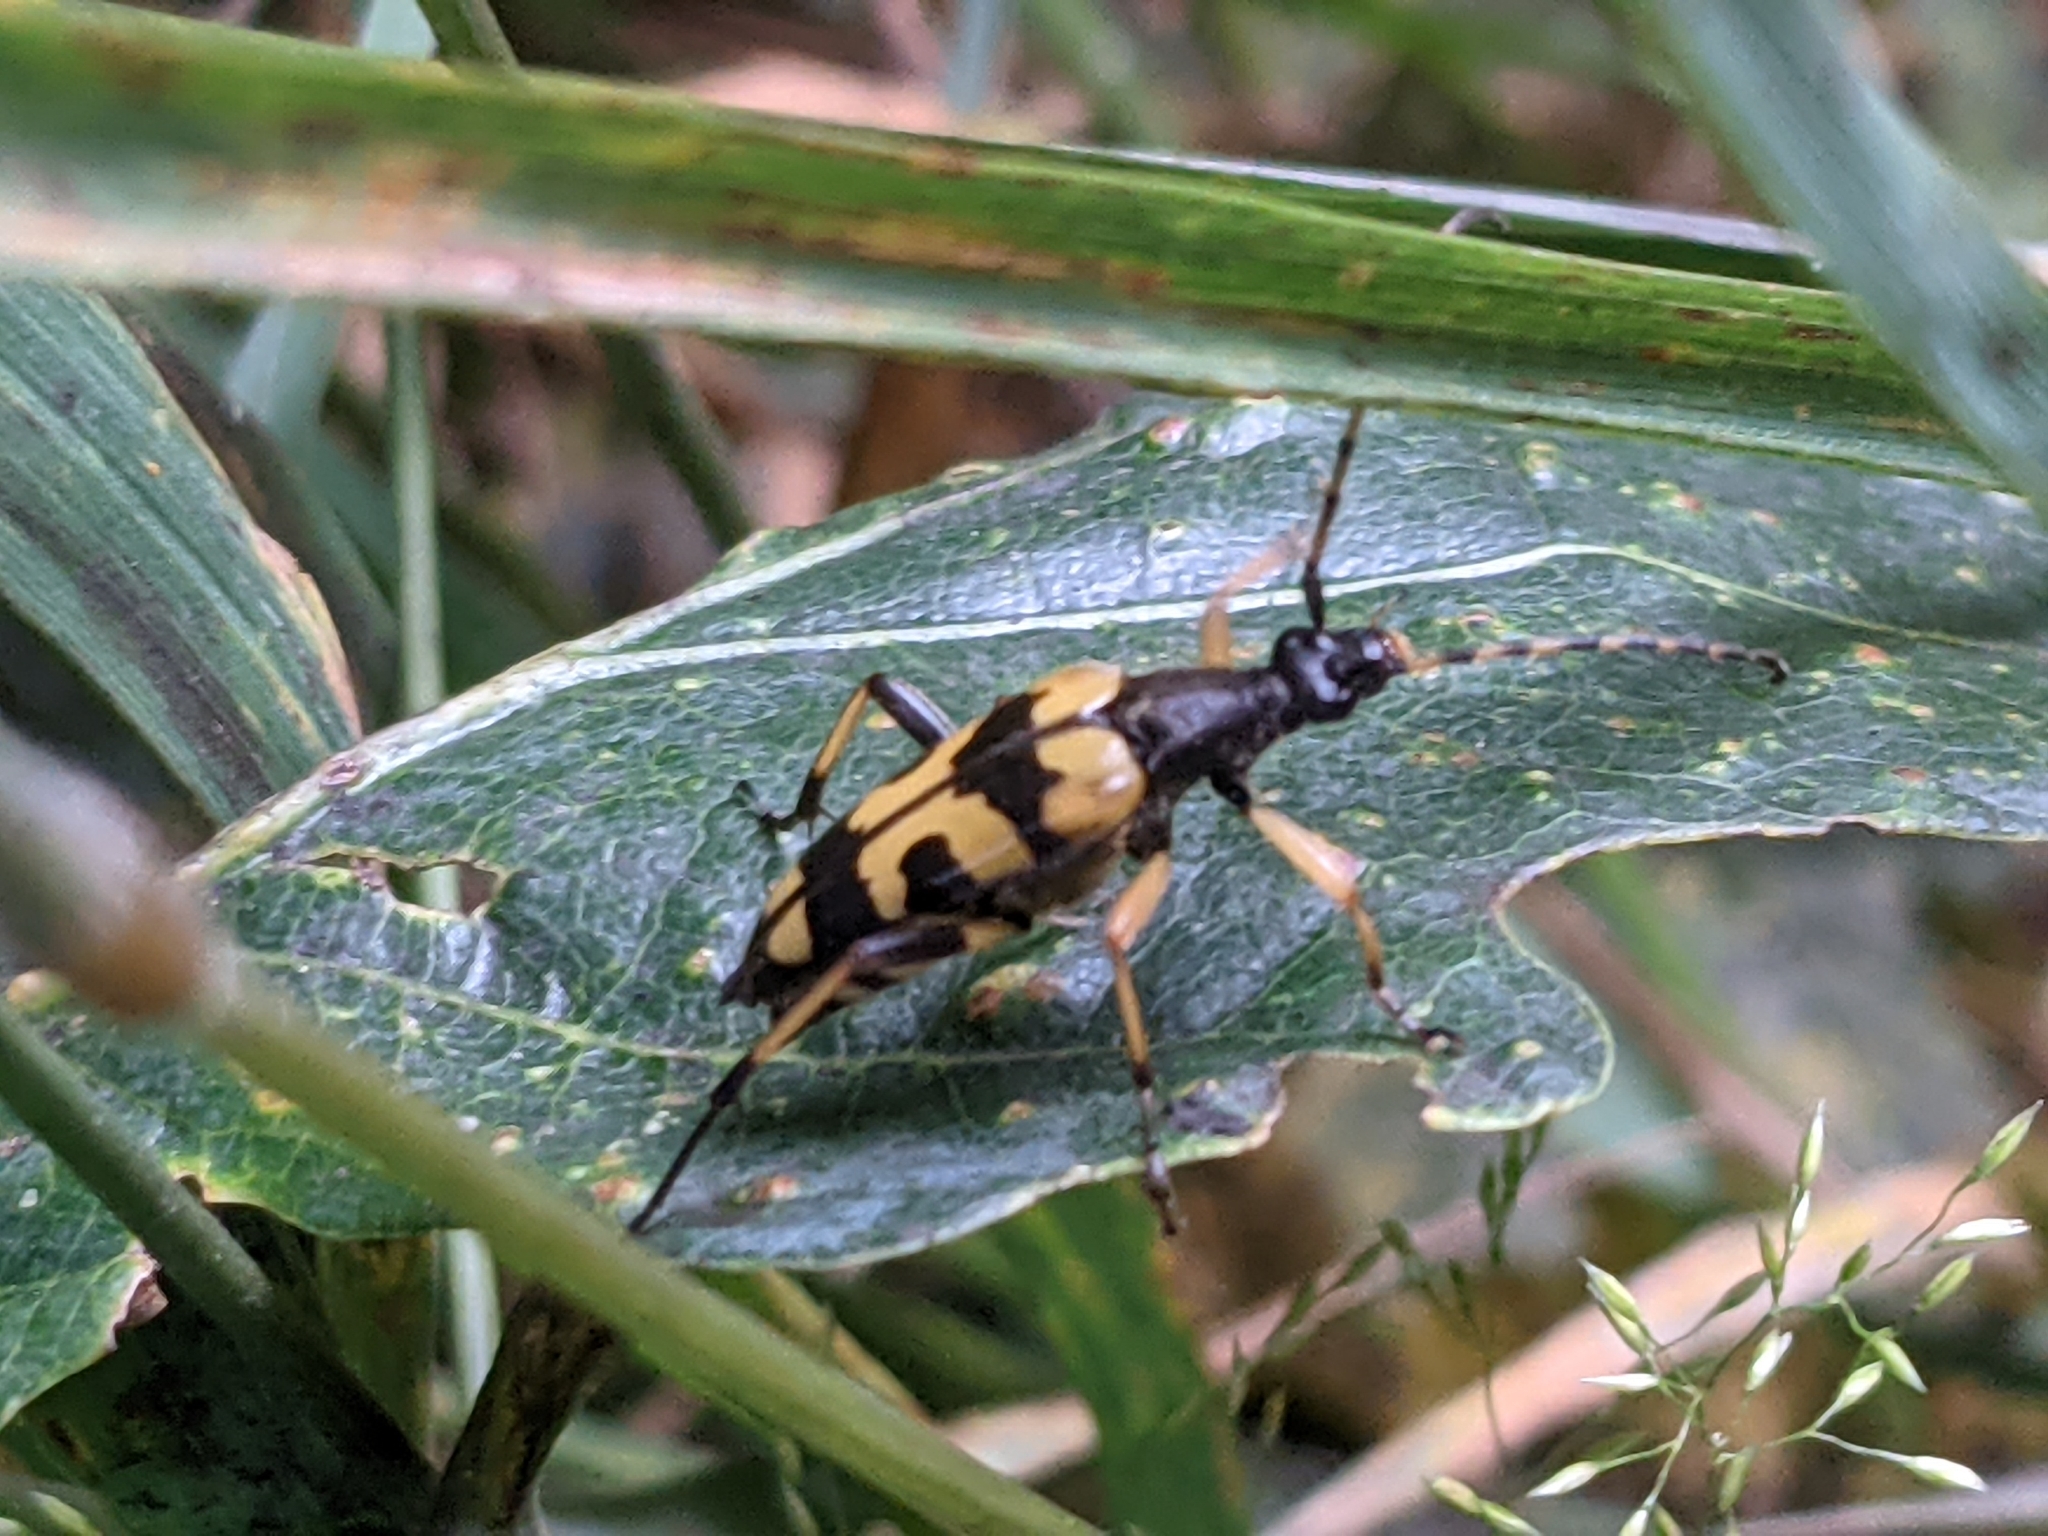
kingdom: Animalia
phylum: Arthropoda
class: Insecta
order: Coleoptera
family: Cerambycidae
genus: Rutpela
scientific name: Rutpela maculata
